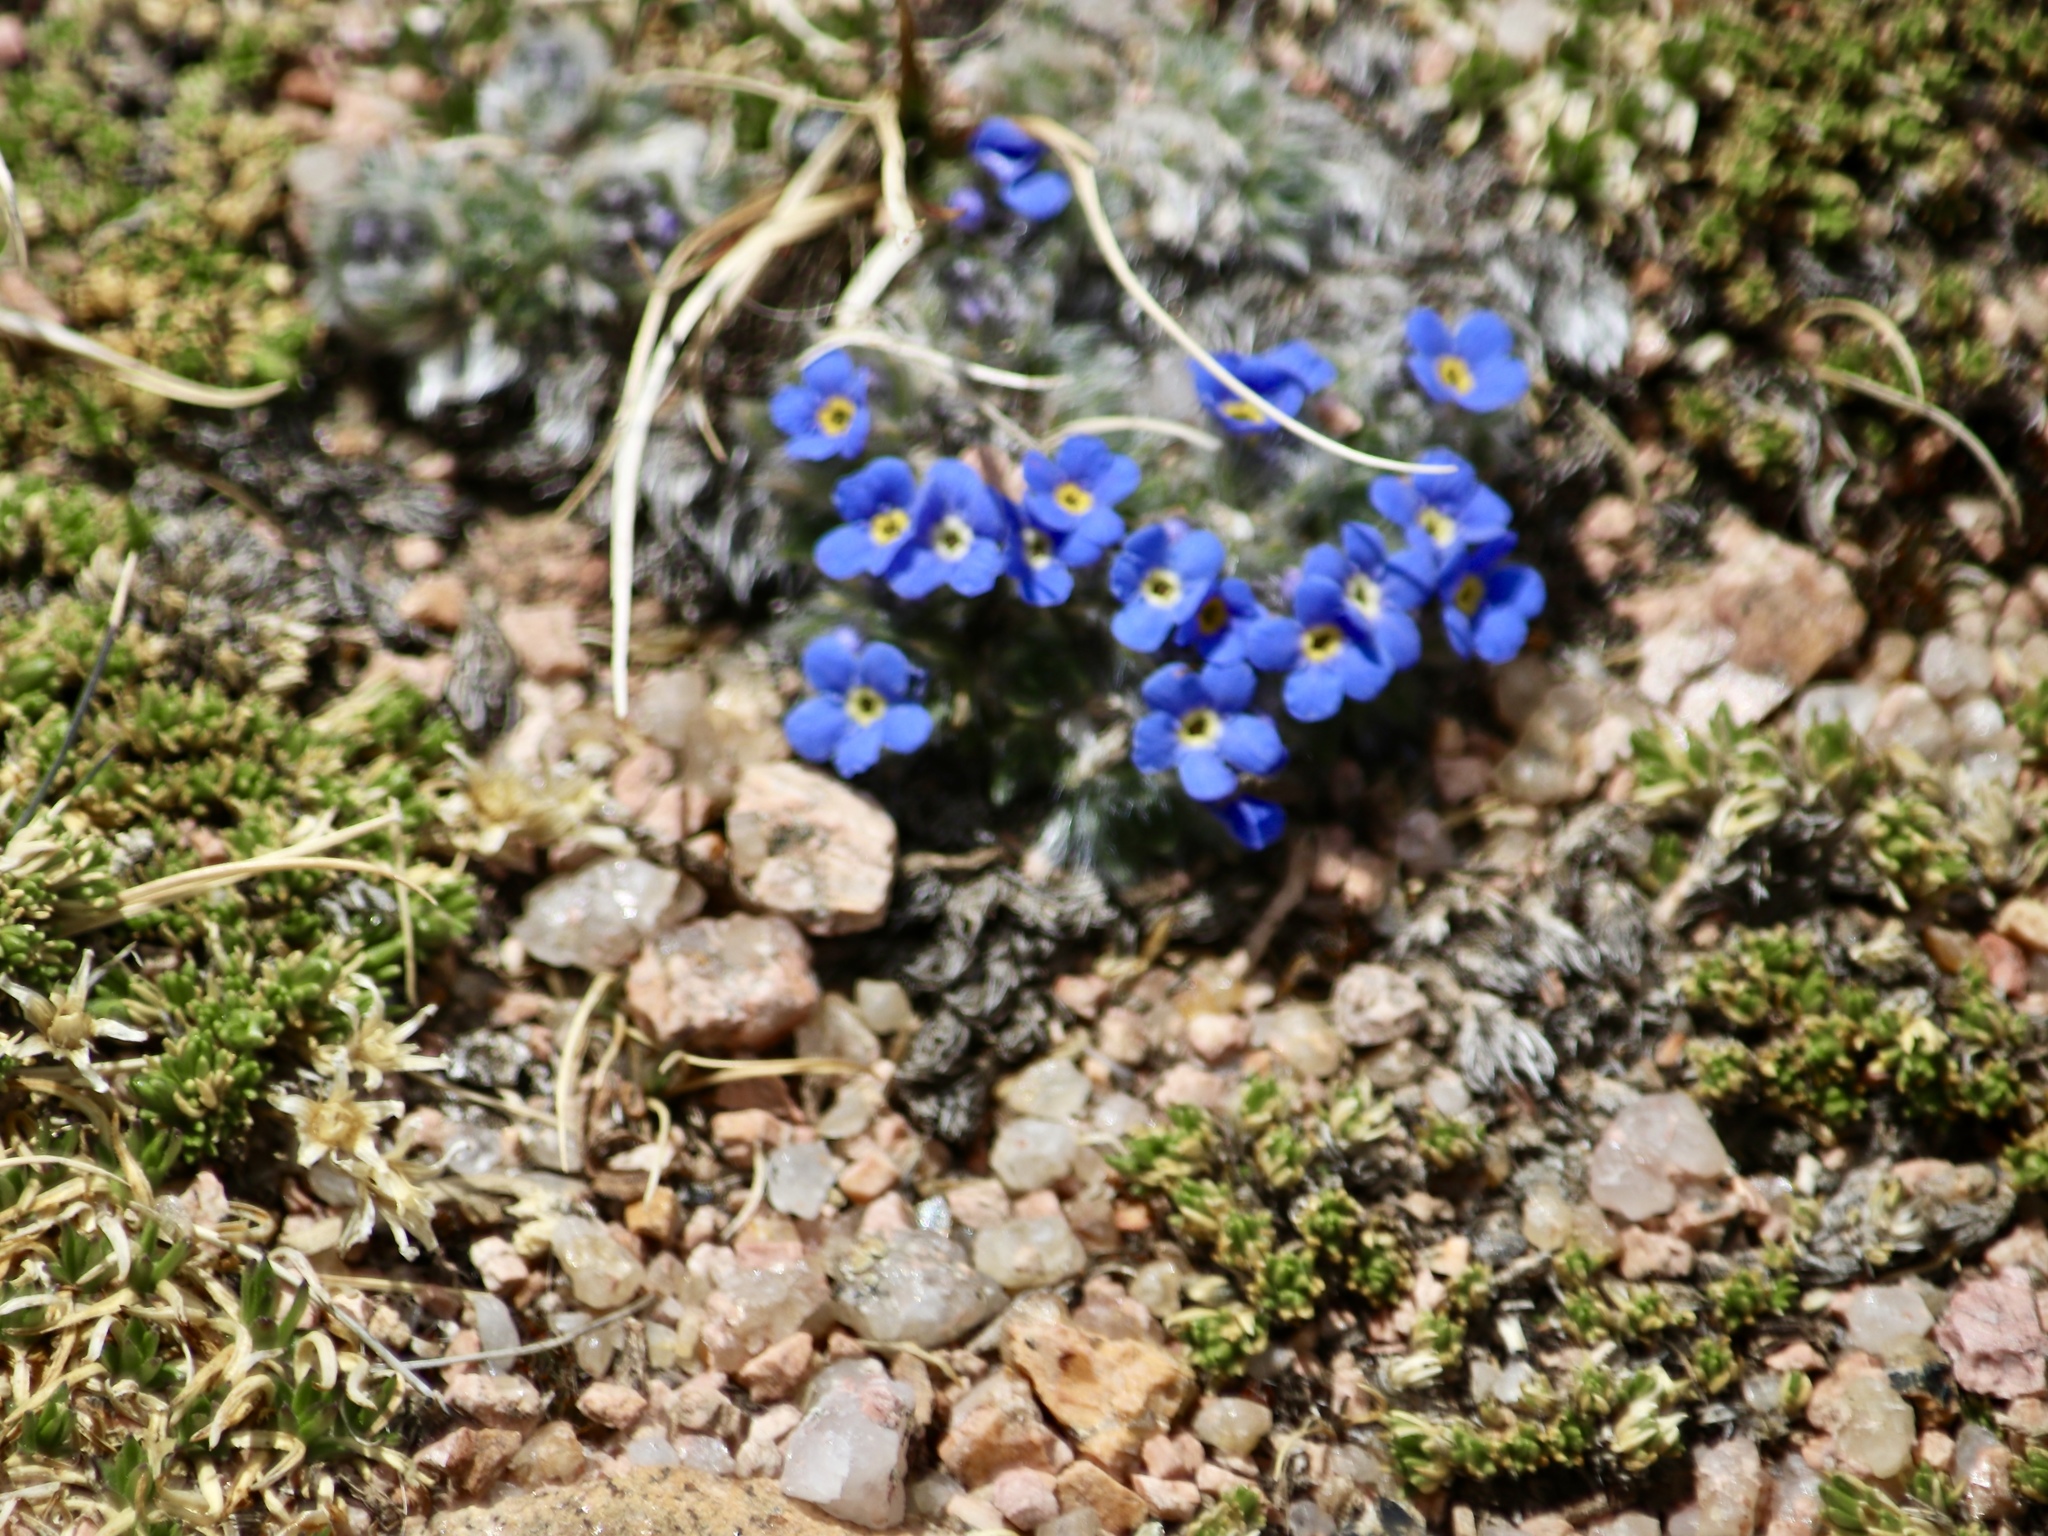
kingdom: Plantae
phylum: Tracheophyta
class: Magnoliopsida
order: Boraginales
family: Boraginaceae
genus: Eritrichium
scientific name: Eritrichium argenteum
